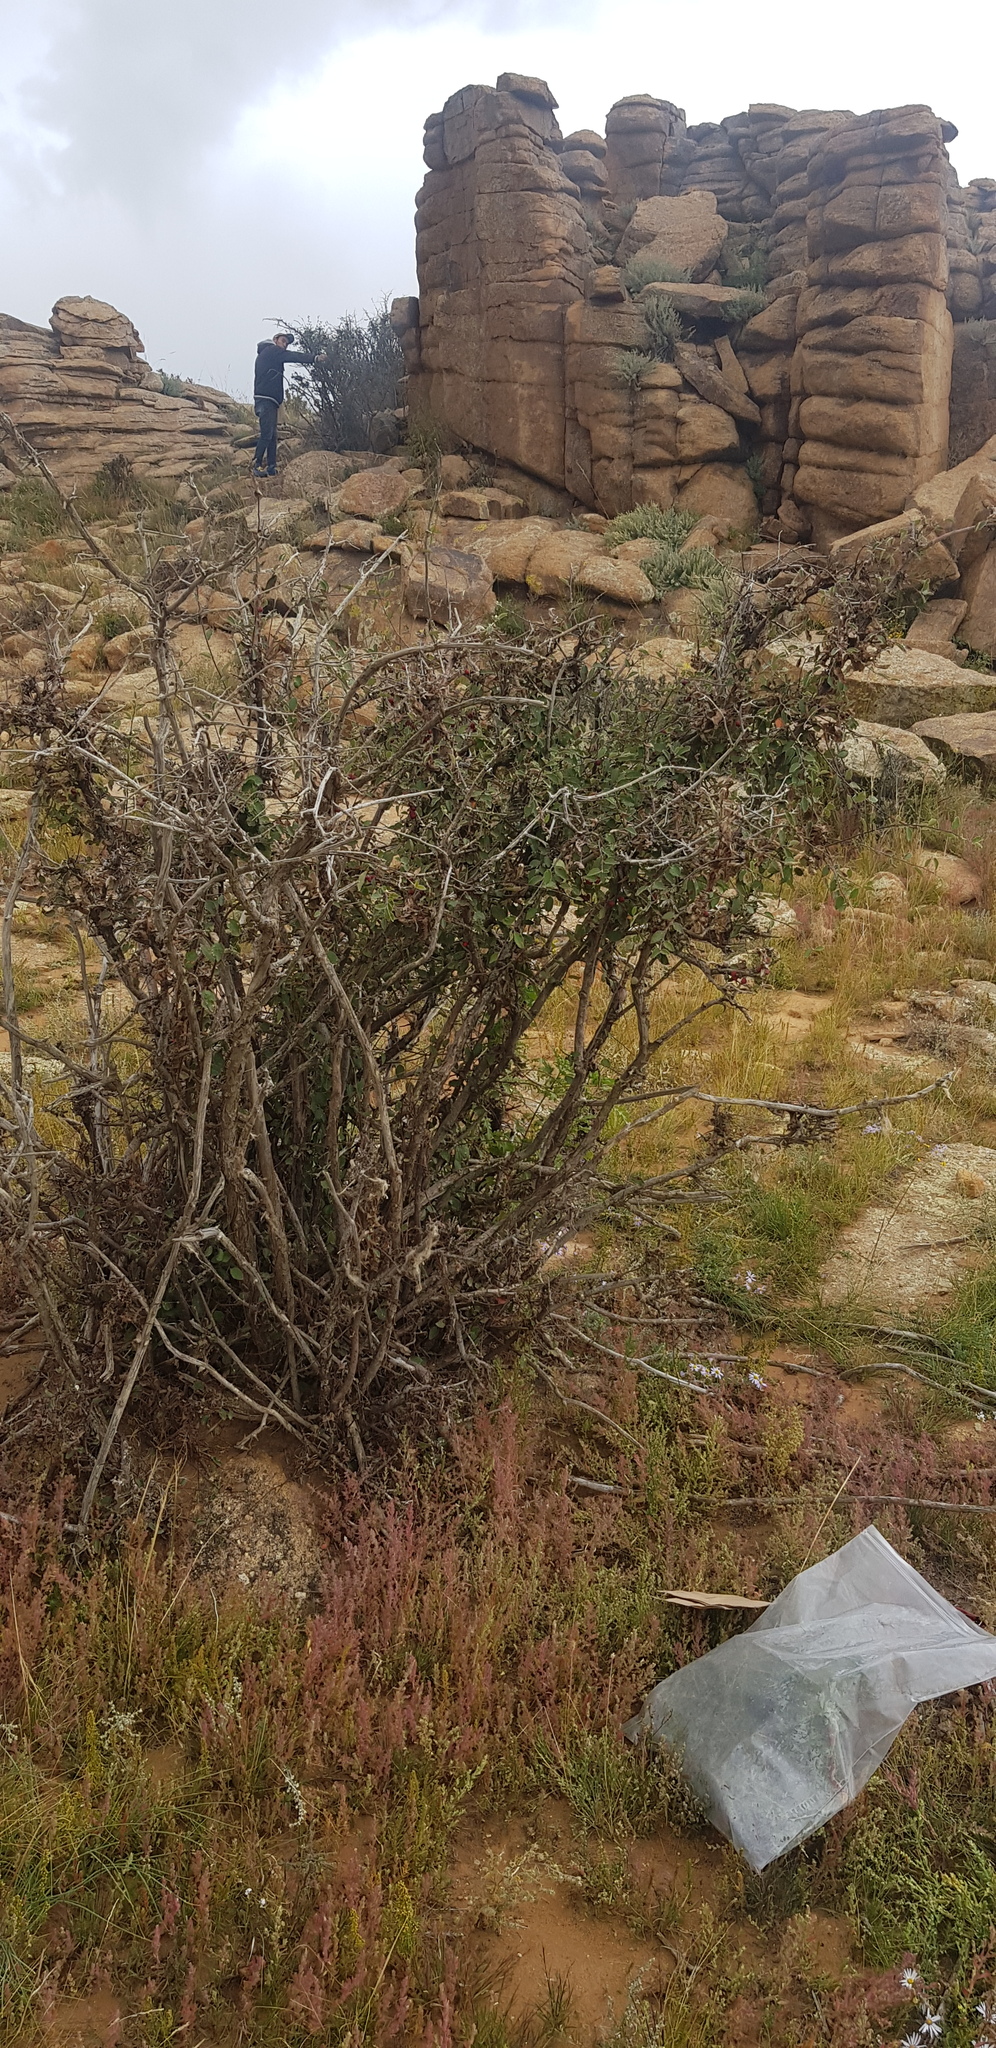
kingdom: Plantae
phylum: Tracheophyta
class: Magnoliopsida
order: Rosales
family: Rosaceae
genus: Cotoneaster
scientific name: Cotoneaster melanocarpus
